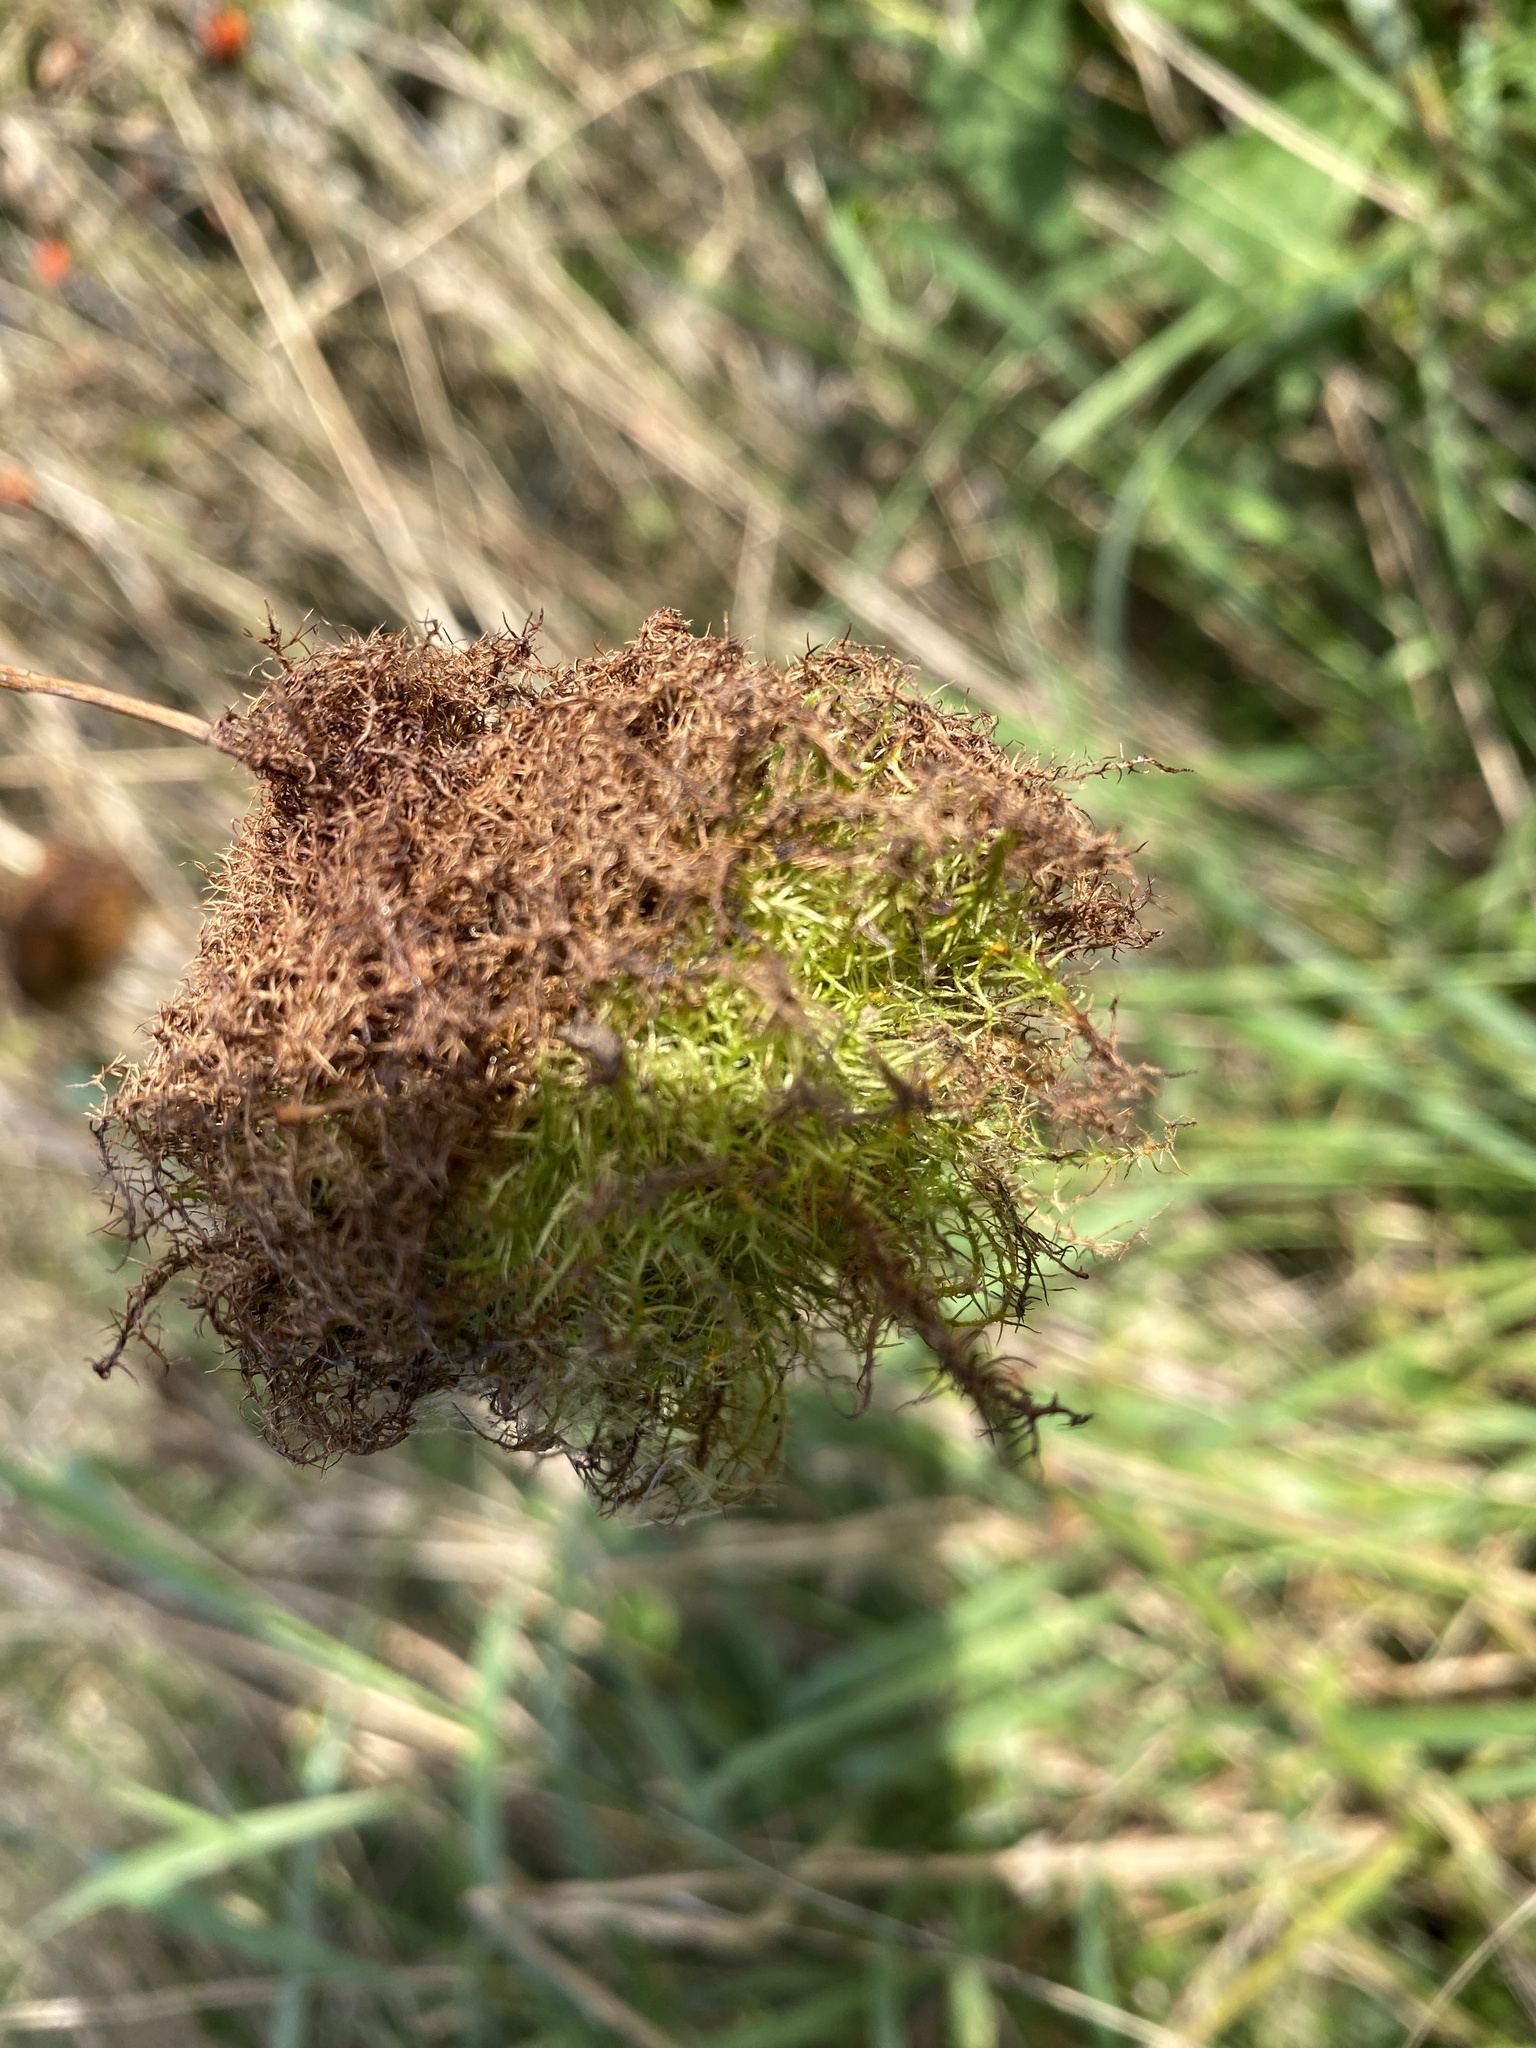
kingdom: Animalia
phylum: Arthropoda
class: Insecta
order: Hymenoptera
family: Cynipidae
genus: Diplolepis
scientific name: Diplolepis rosae
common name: Bedeguar gall
